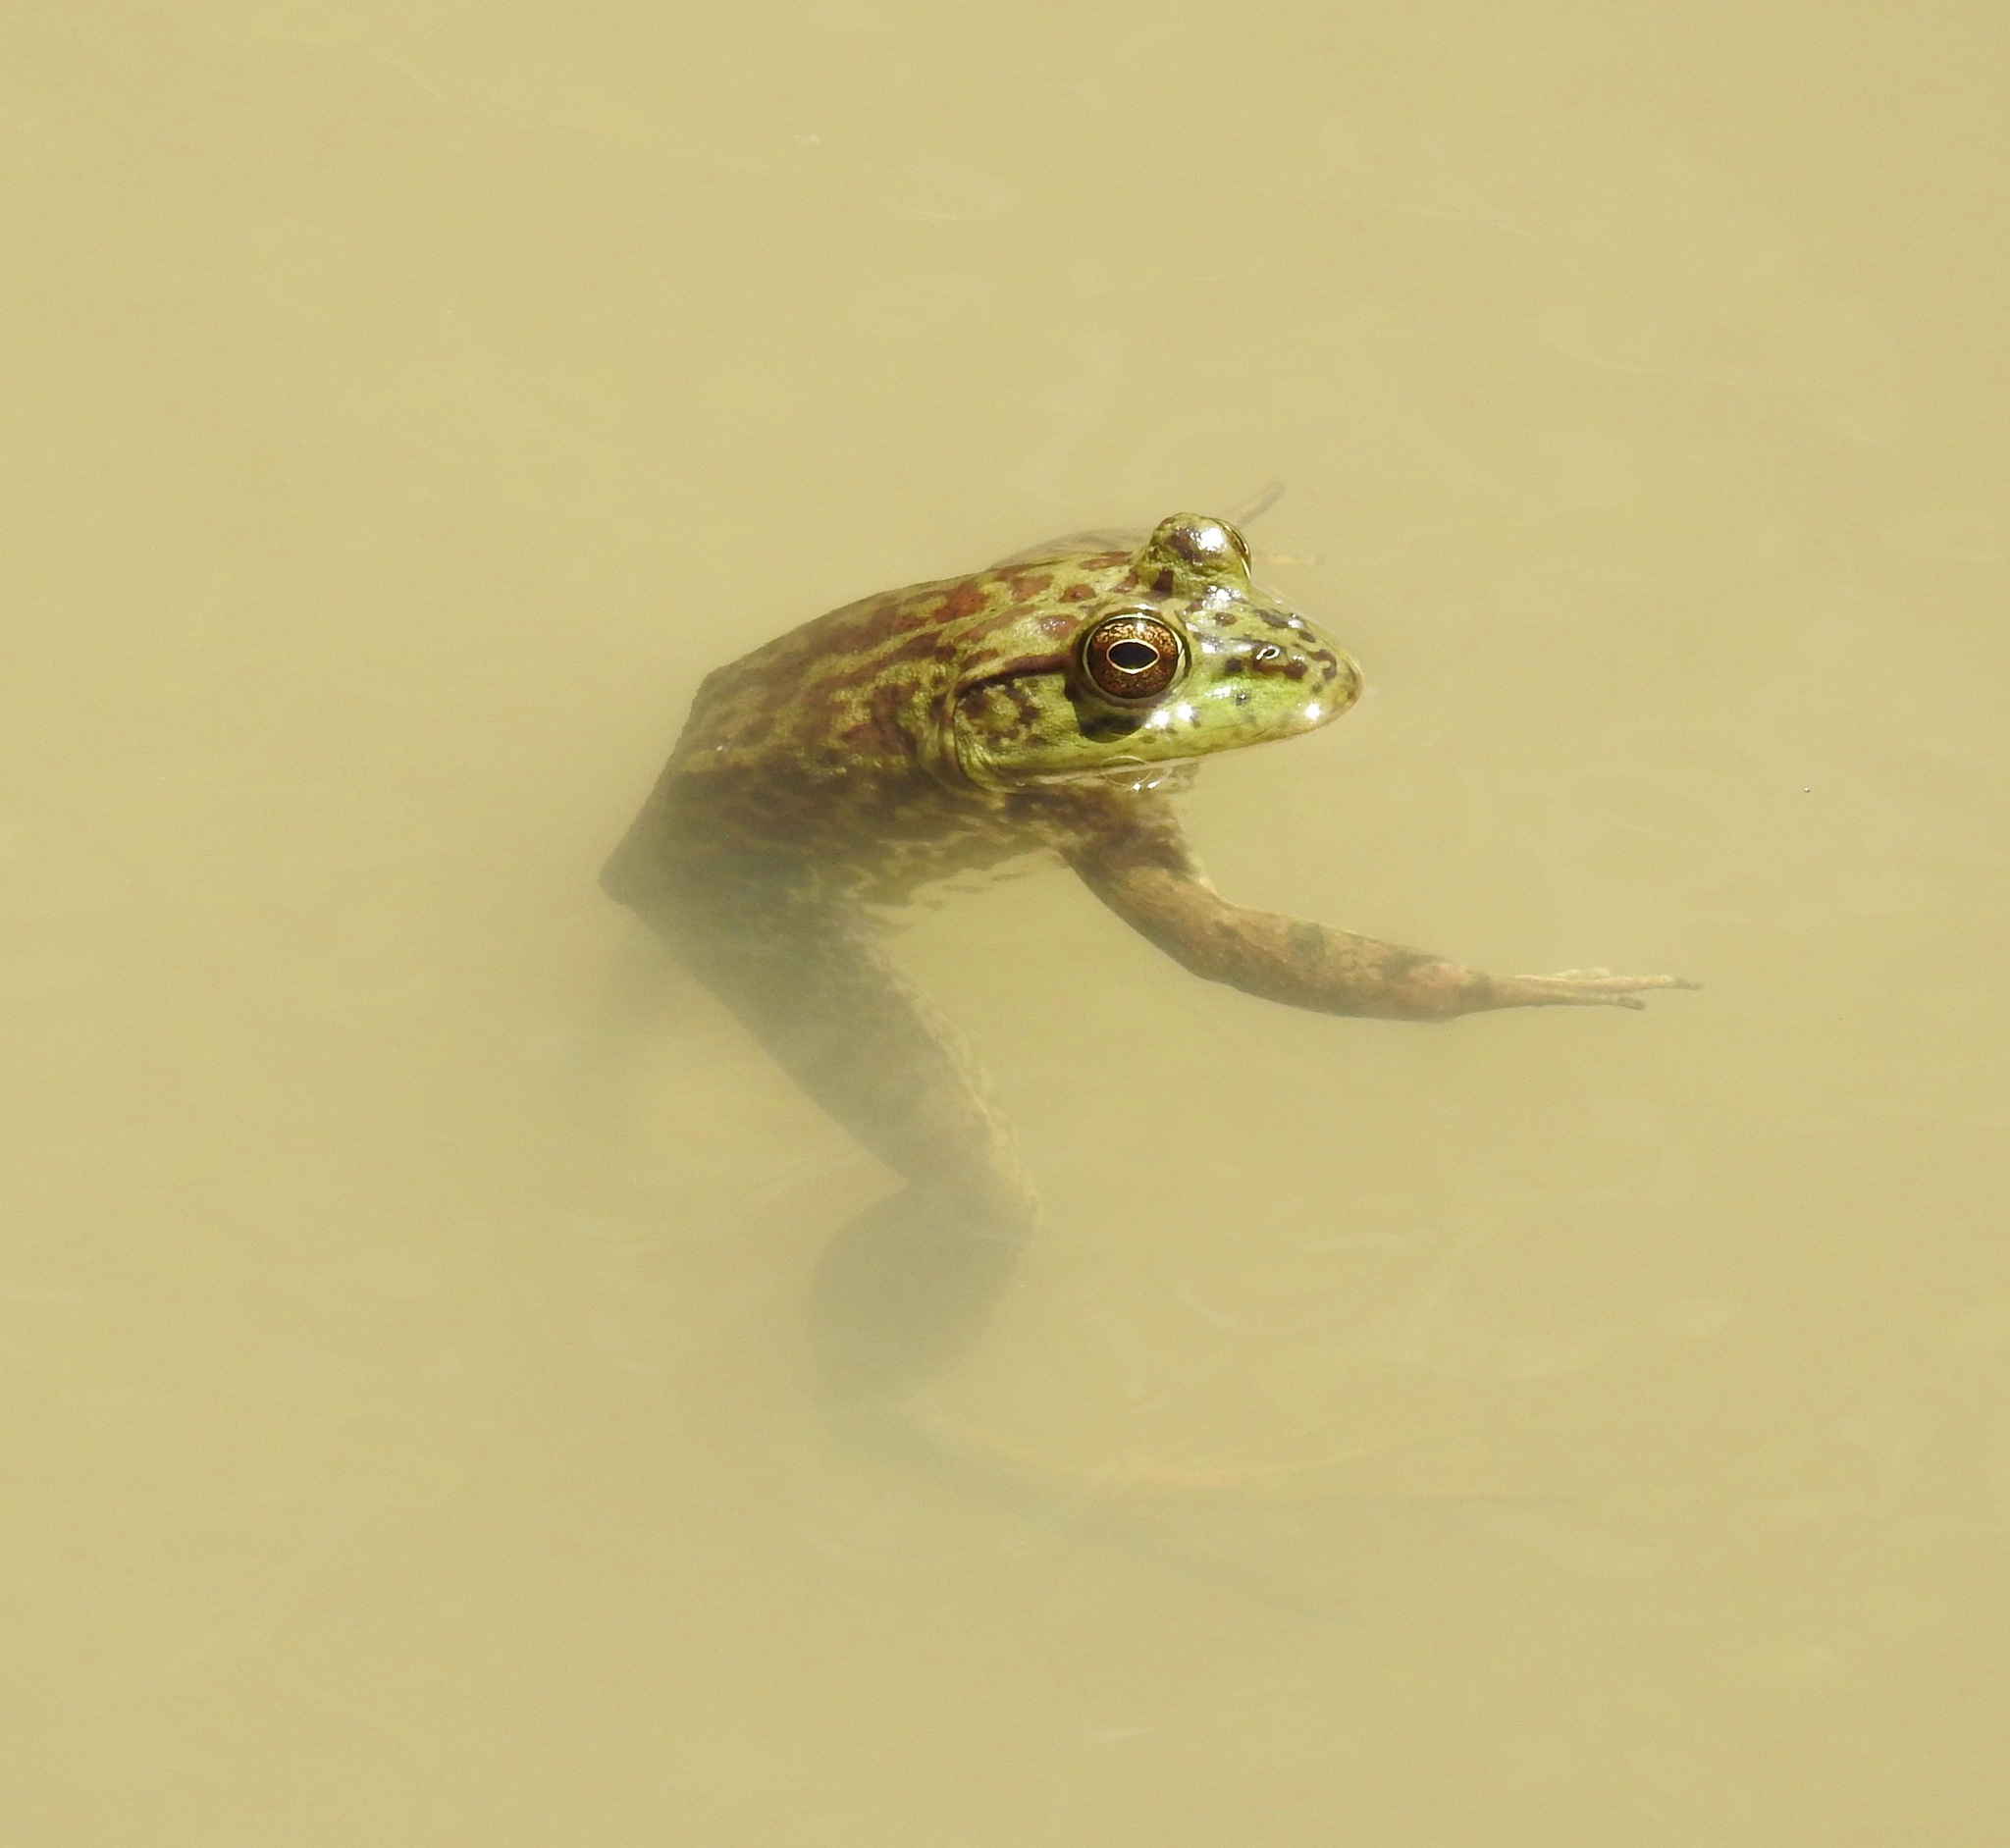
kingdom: Animalia
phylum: Chordata
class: Amphibia
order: Anura
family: Ranidae
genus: Lithobates
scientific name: Lithobates catesbeianus
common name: American bullfrog
